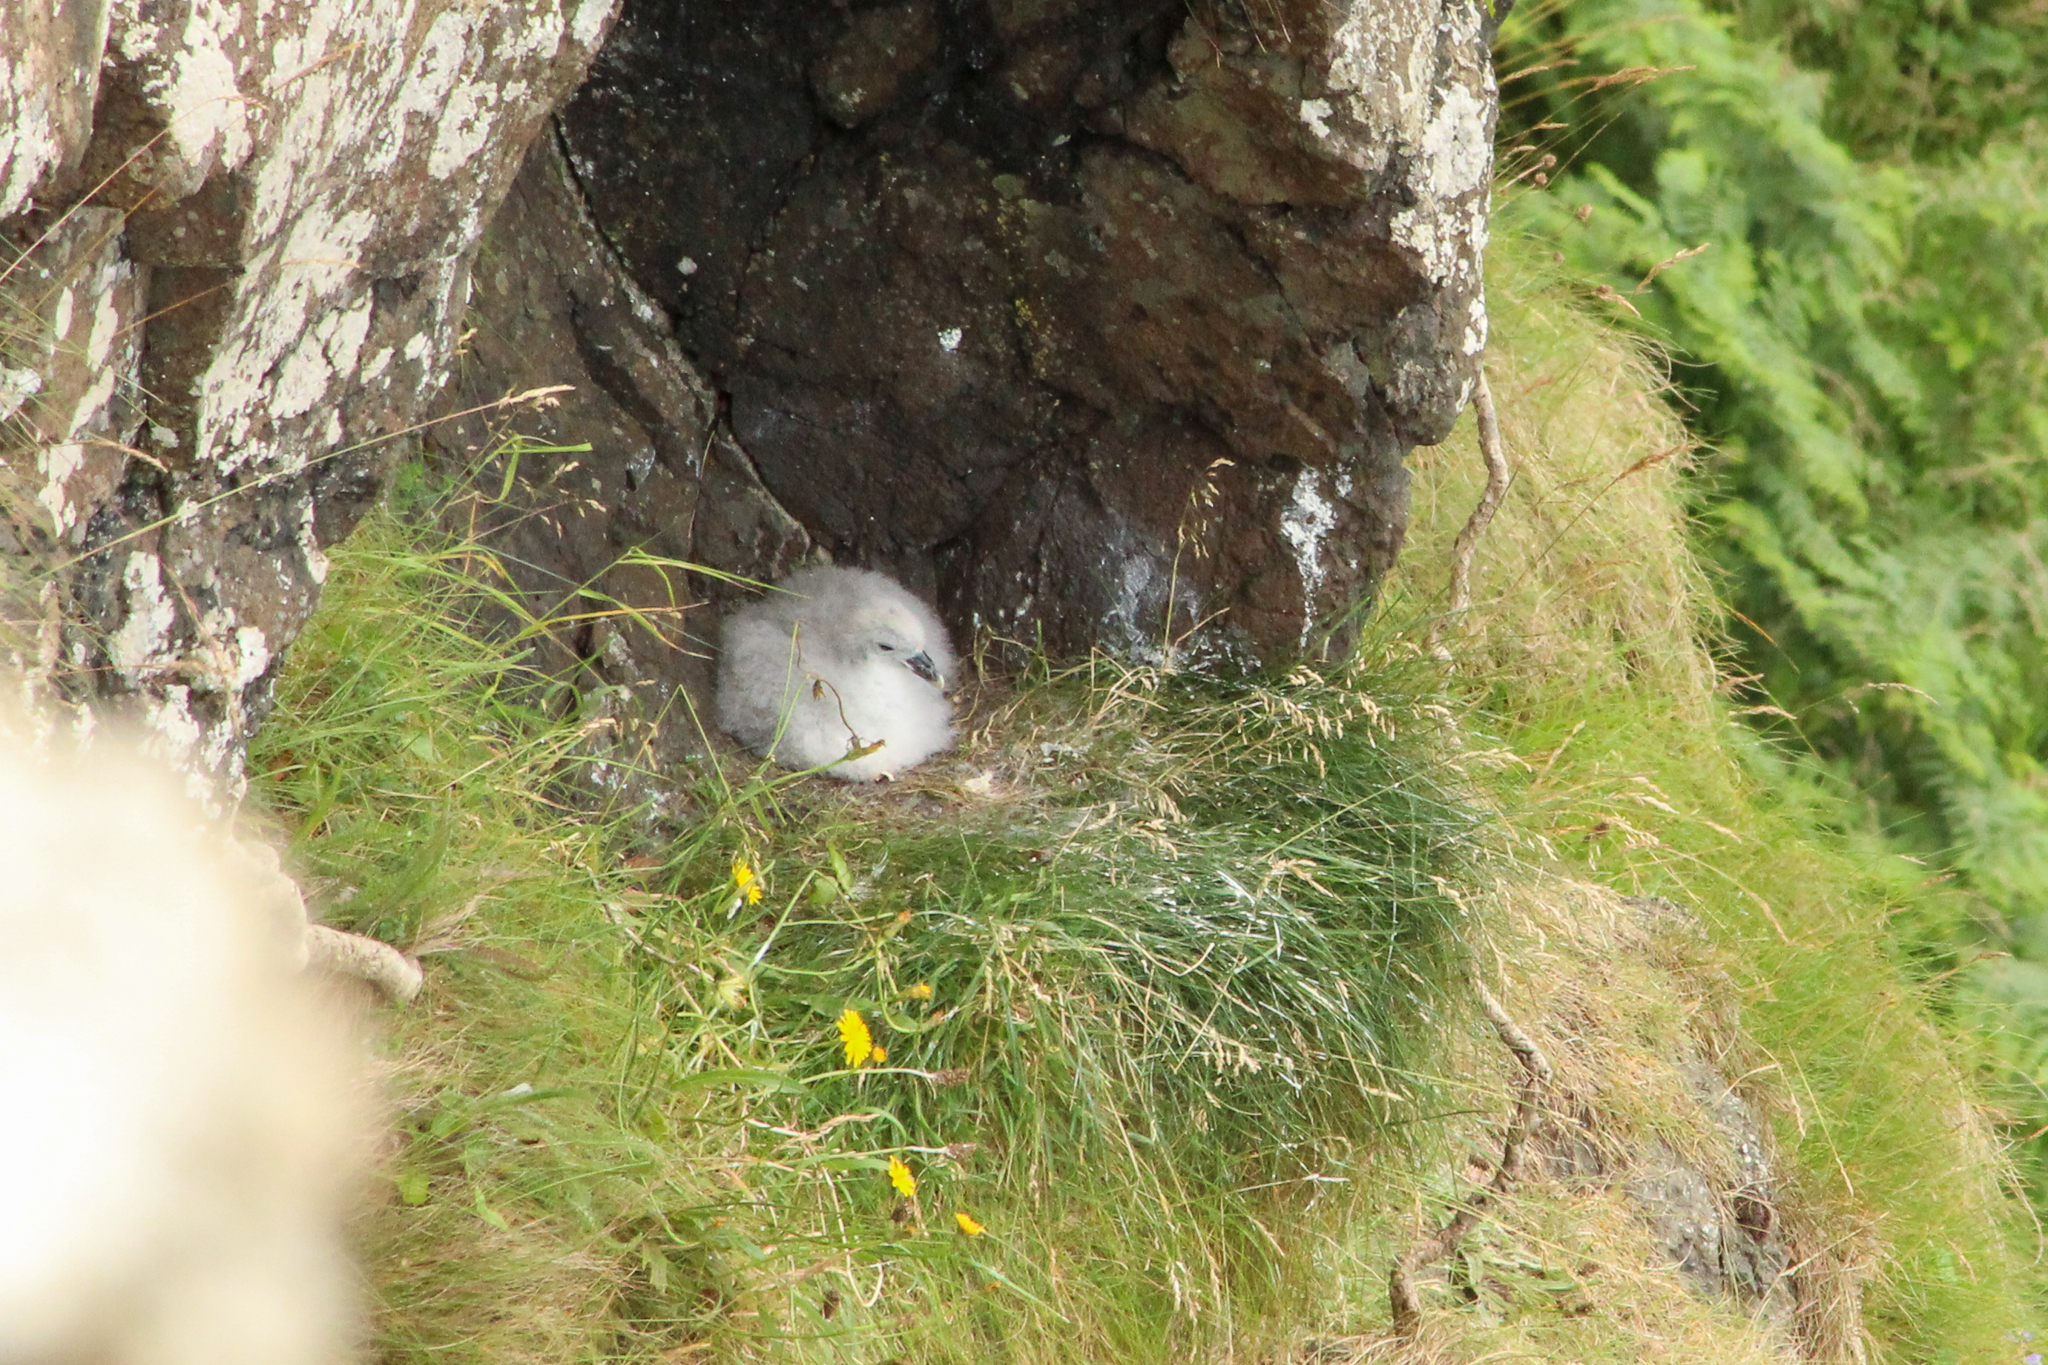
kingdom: Animalia
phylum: Chordata
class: Aves
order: Procellariiformes
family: Procellariidae
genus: Fulmarus
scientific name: Fulmarus glacialis
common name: Northern fulmar
